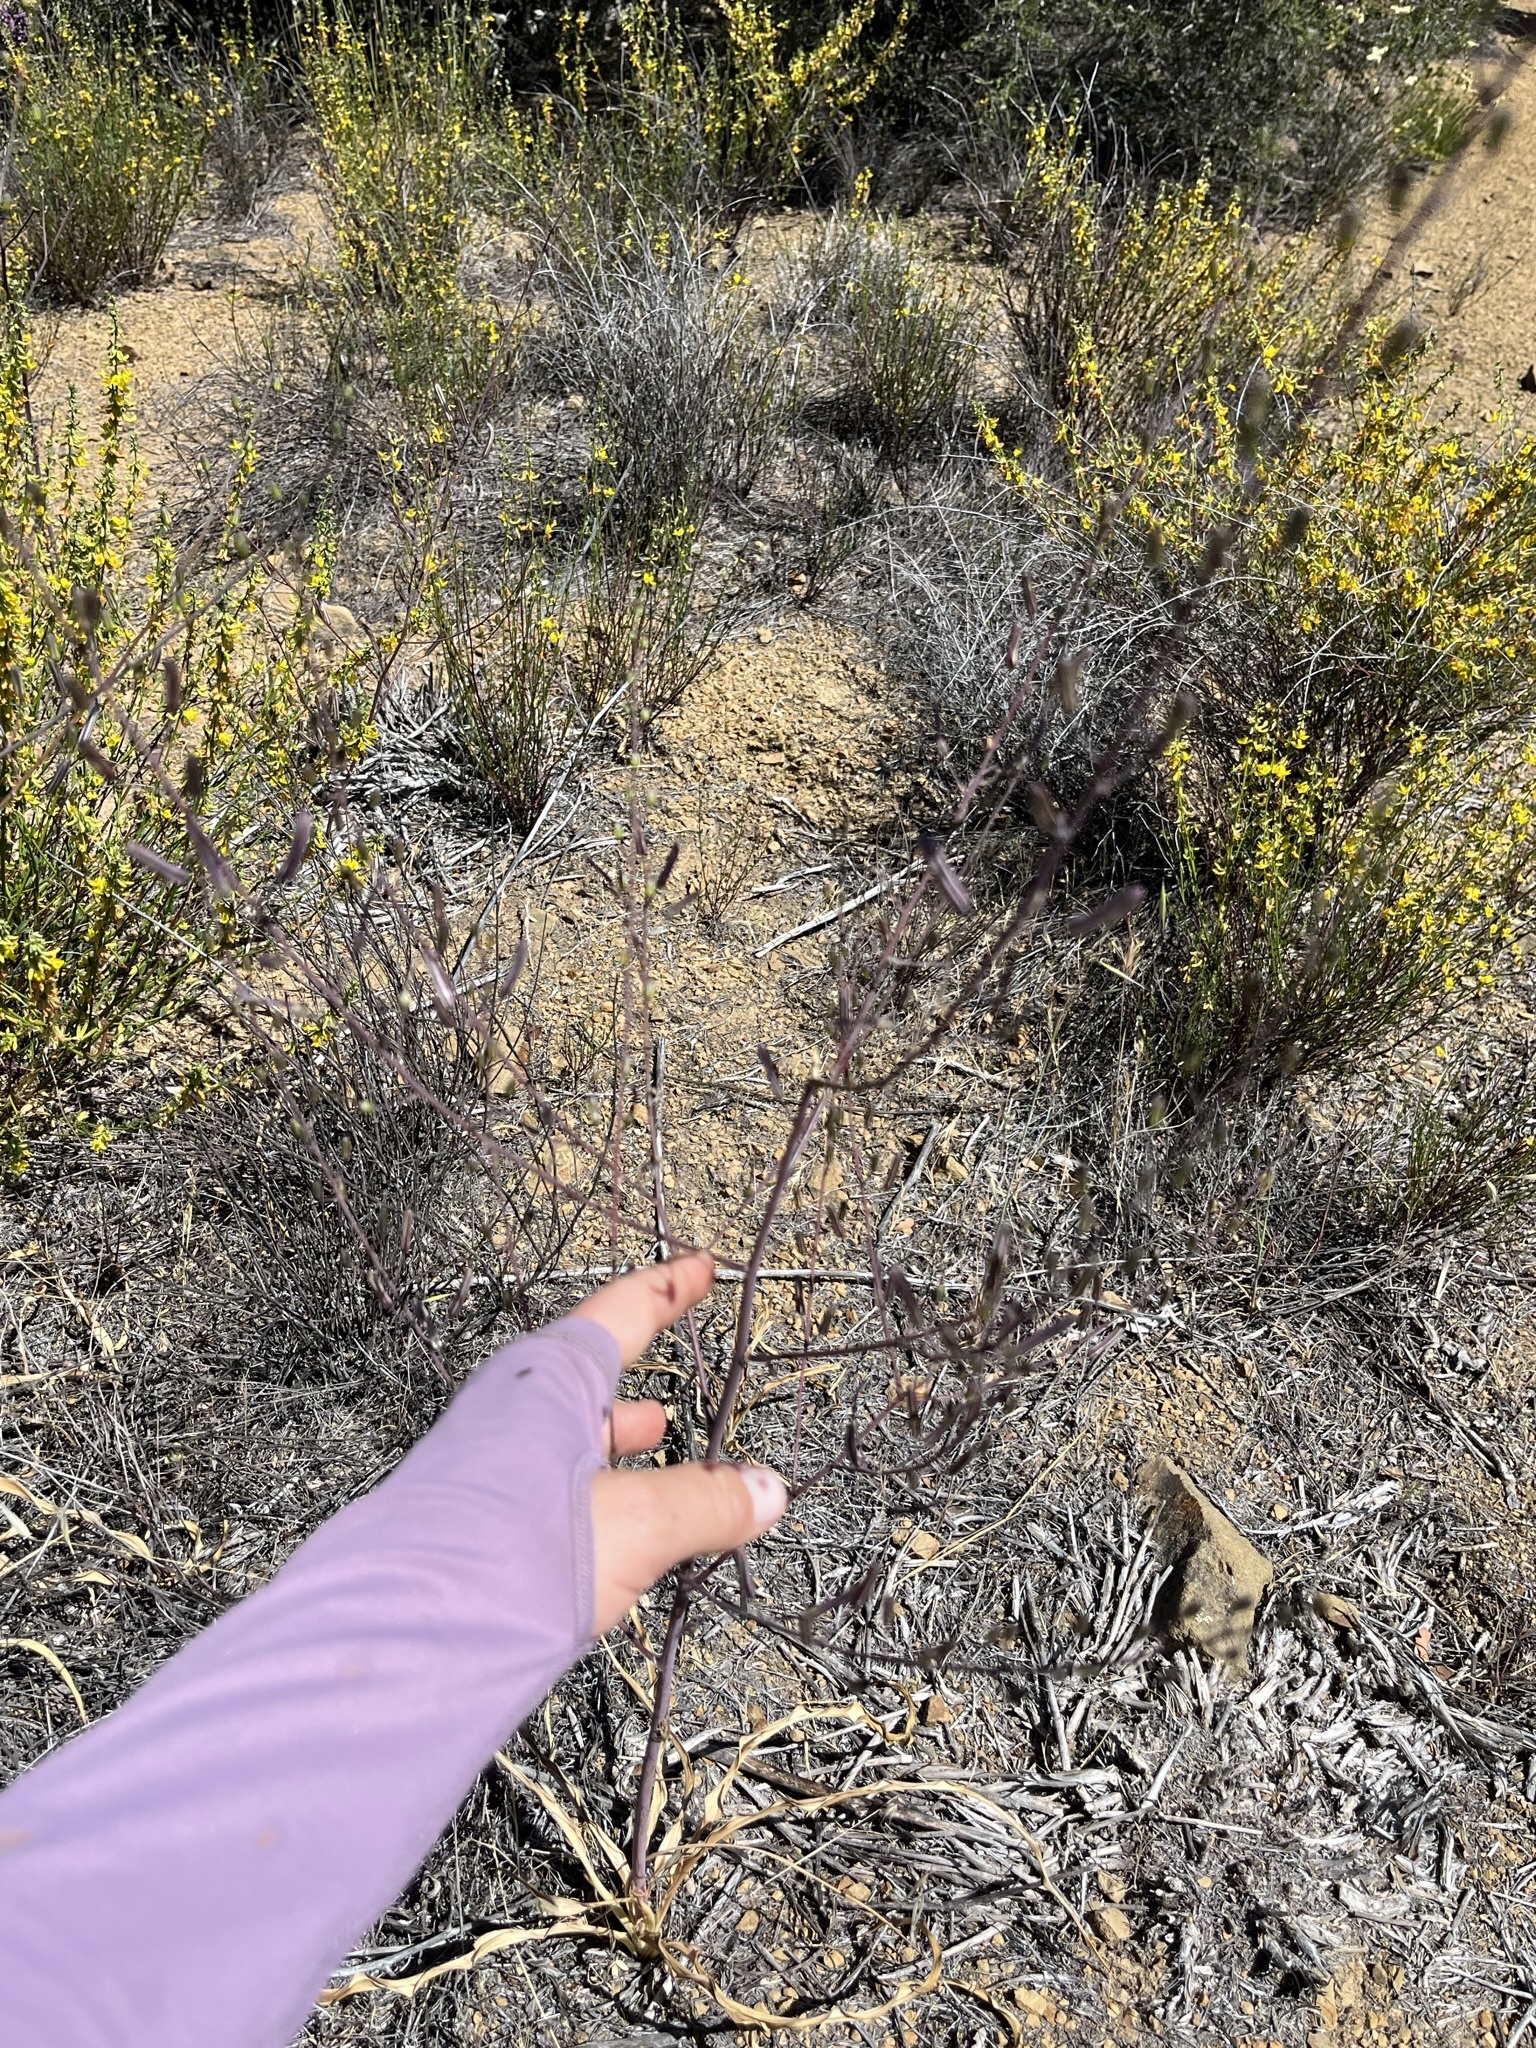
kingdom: Plantae
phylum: Tracheophyta
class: Liliopsida
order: Asparagales
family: Asparagaceae
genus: Chlorogalum
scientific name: Chlorogalum pomeridianum
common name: Amole
